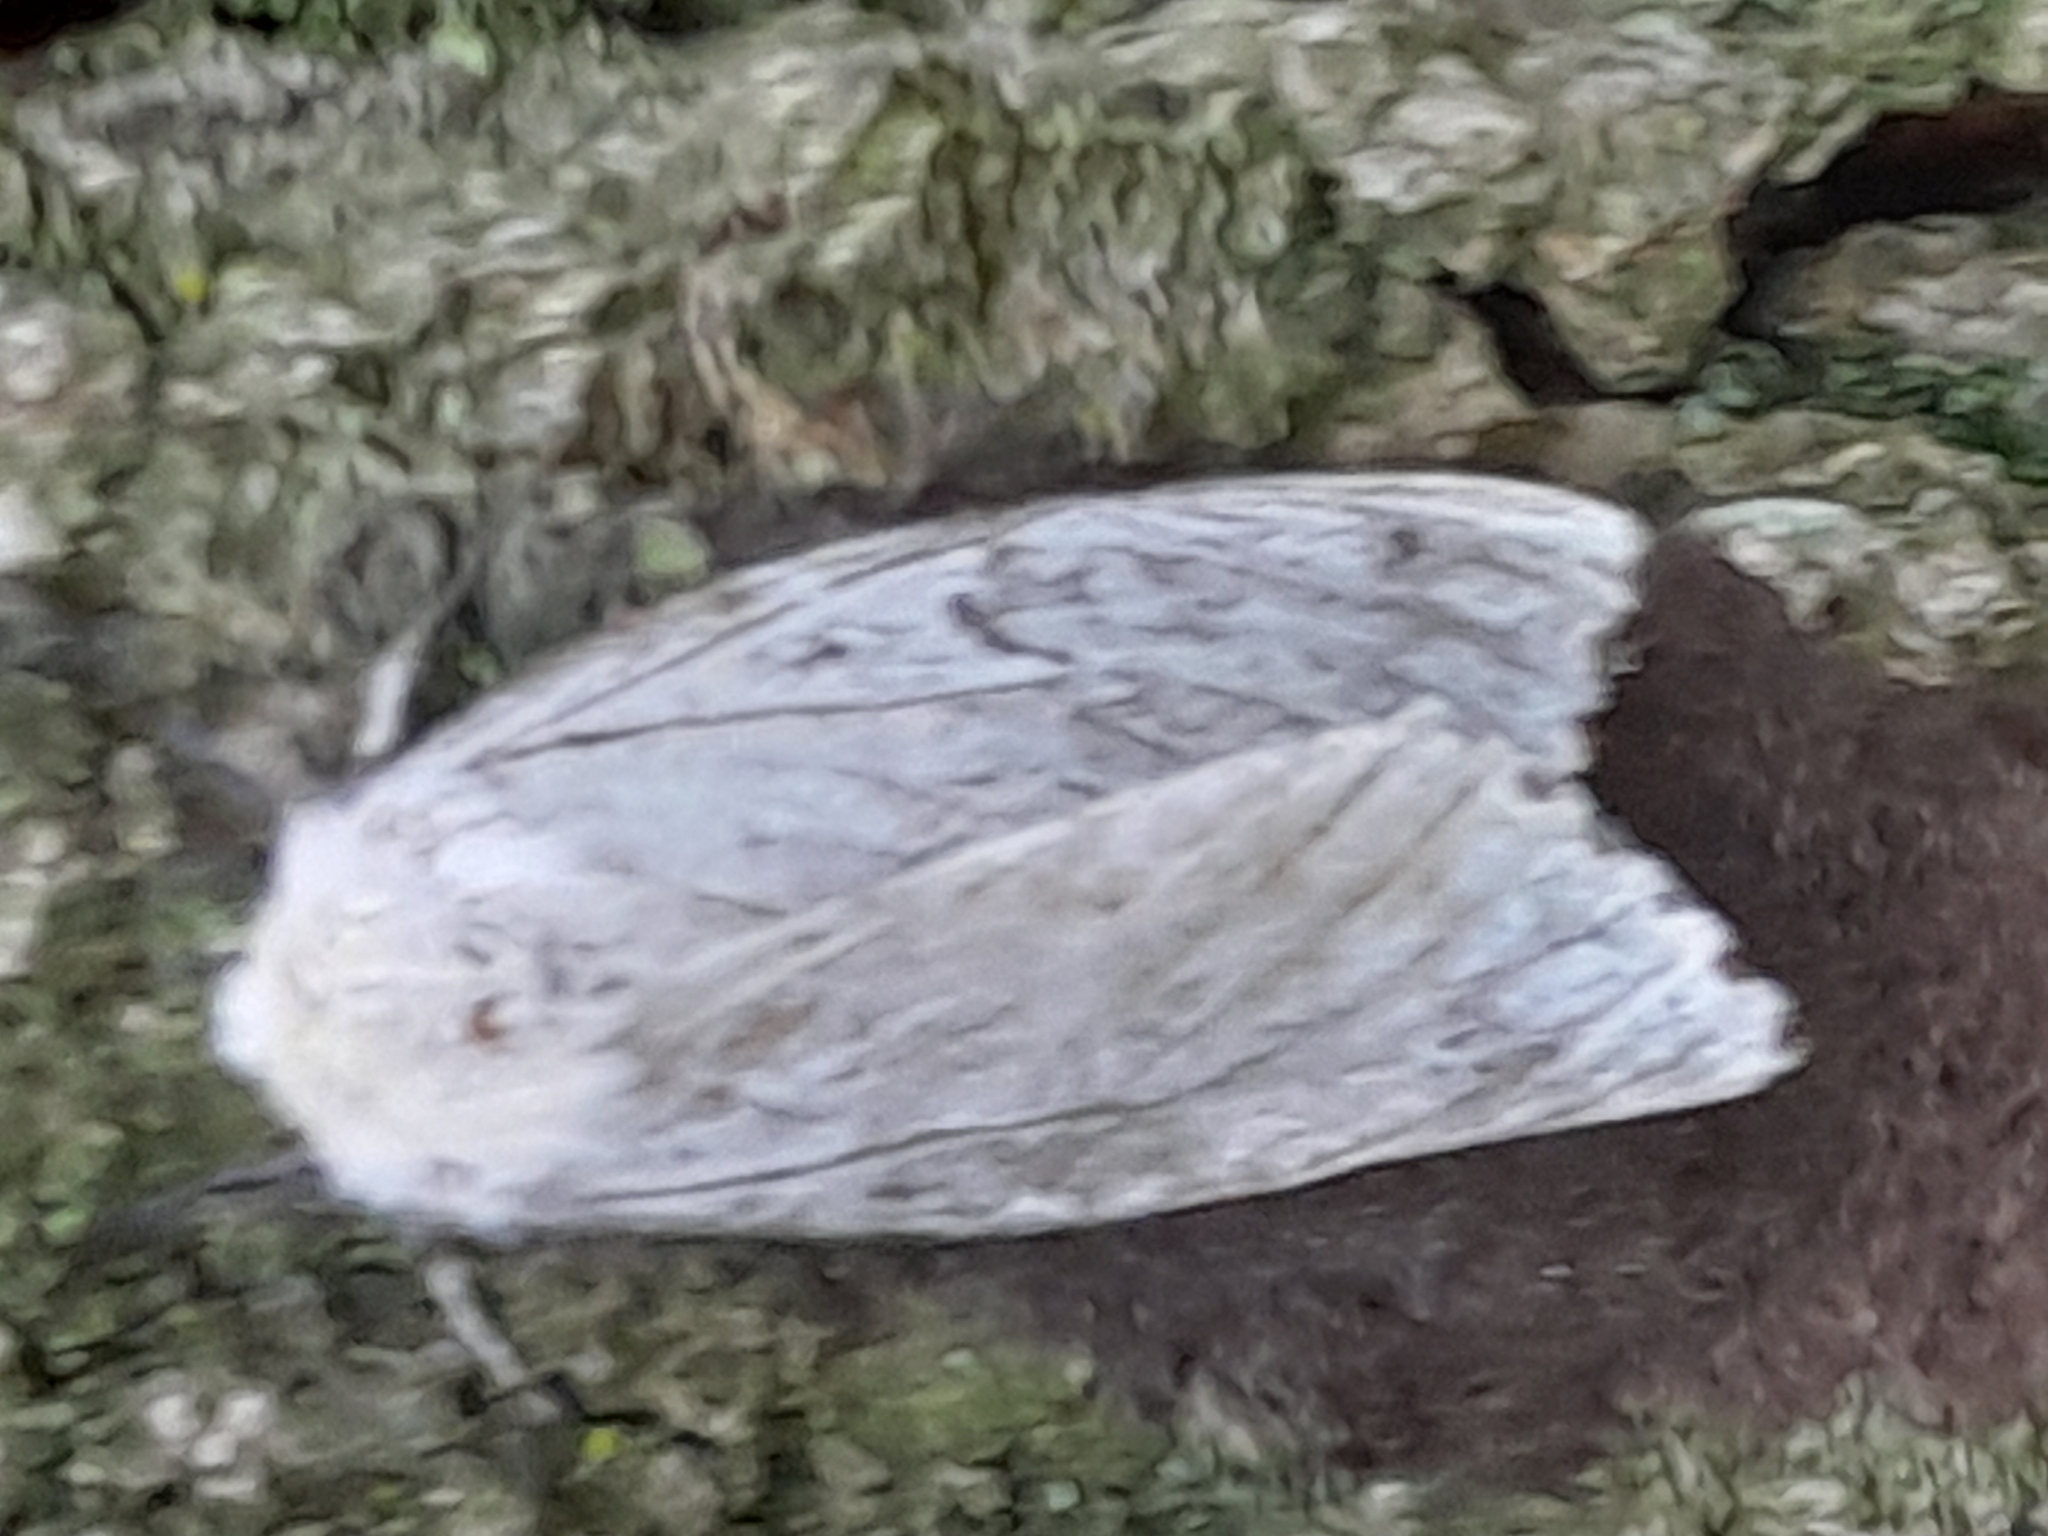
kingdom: Animalia
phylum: Arthropoda
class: Insecta
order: Lepidoptera
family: Erebidae
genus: Lymantria
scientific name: Lymantria dispar
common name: Gypsy moth
